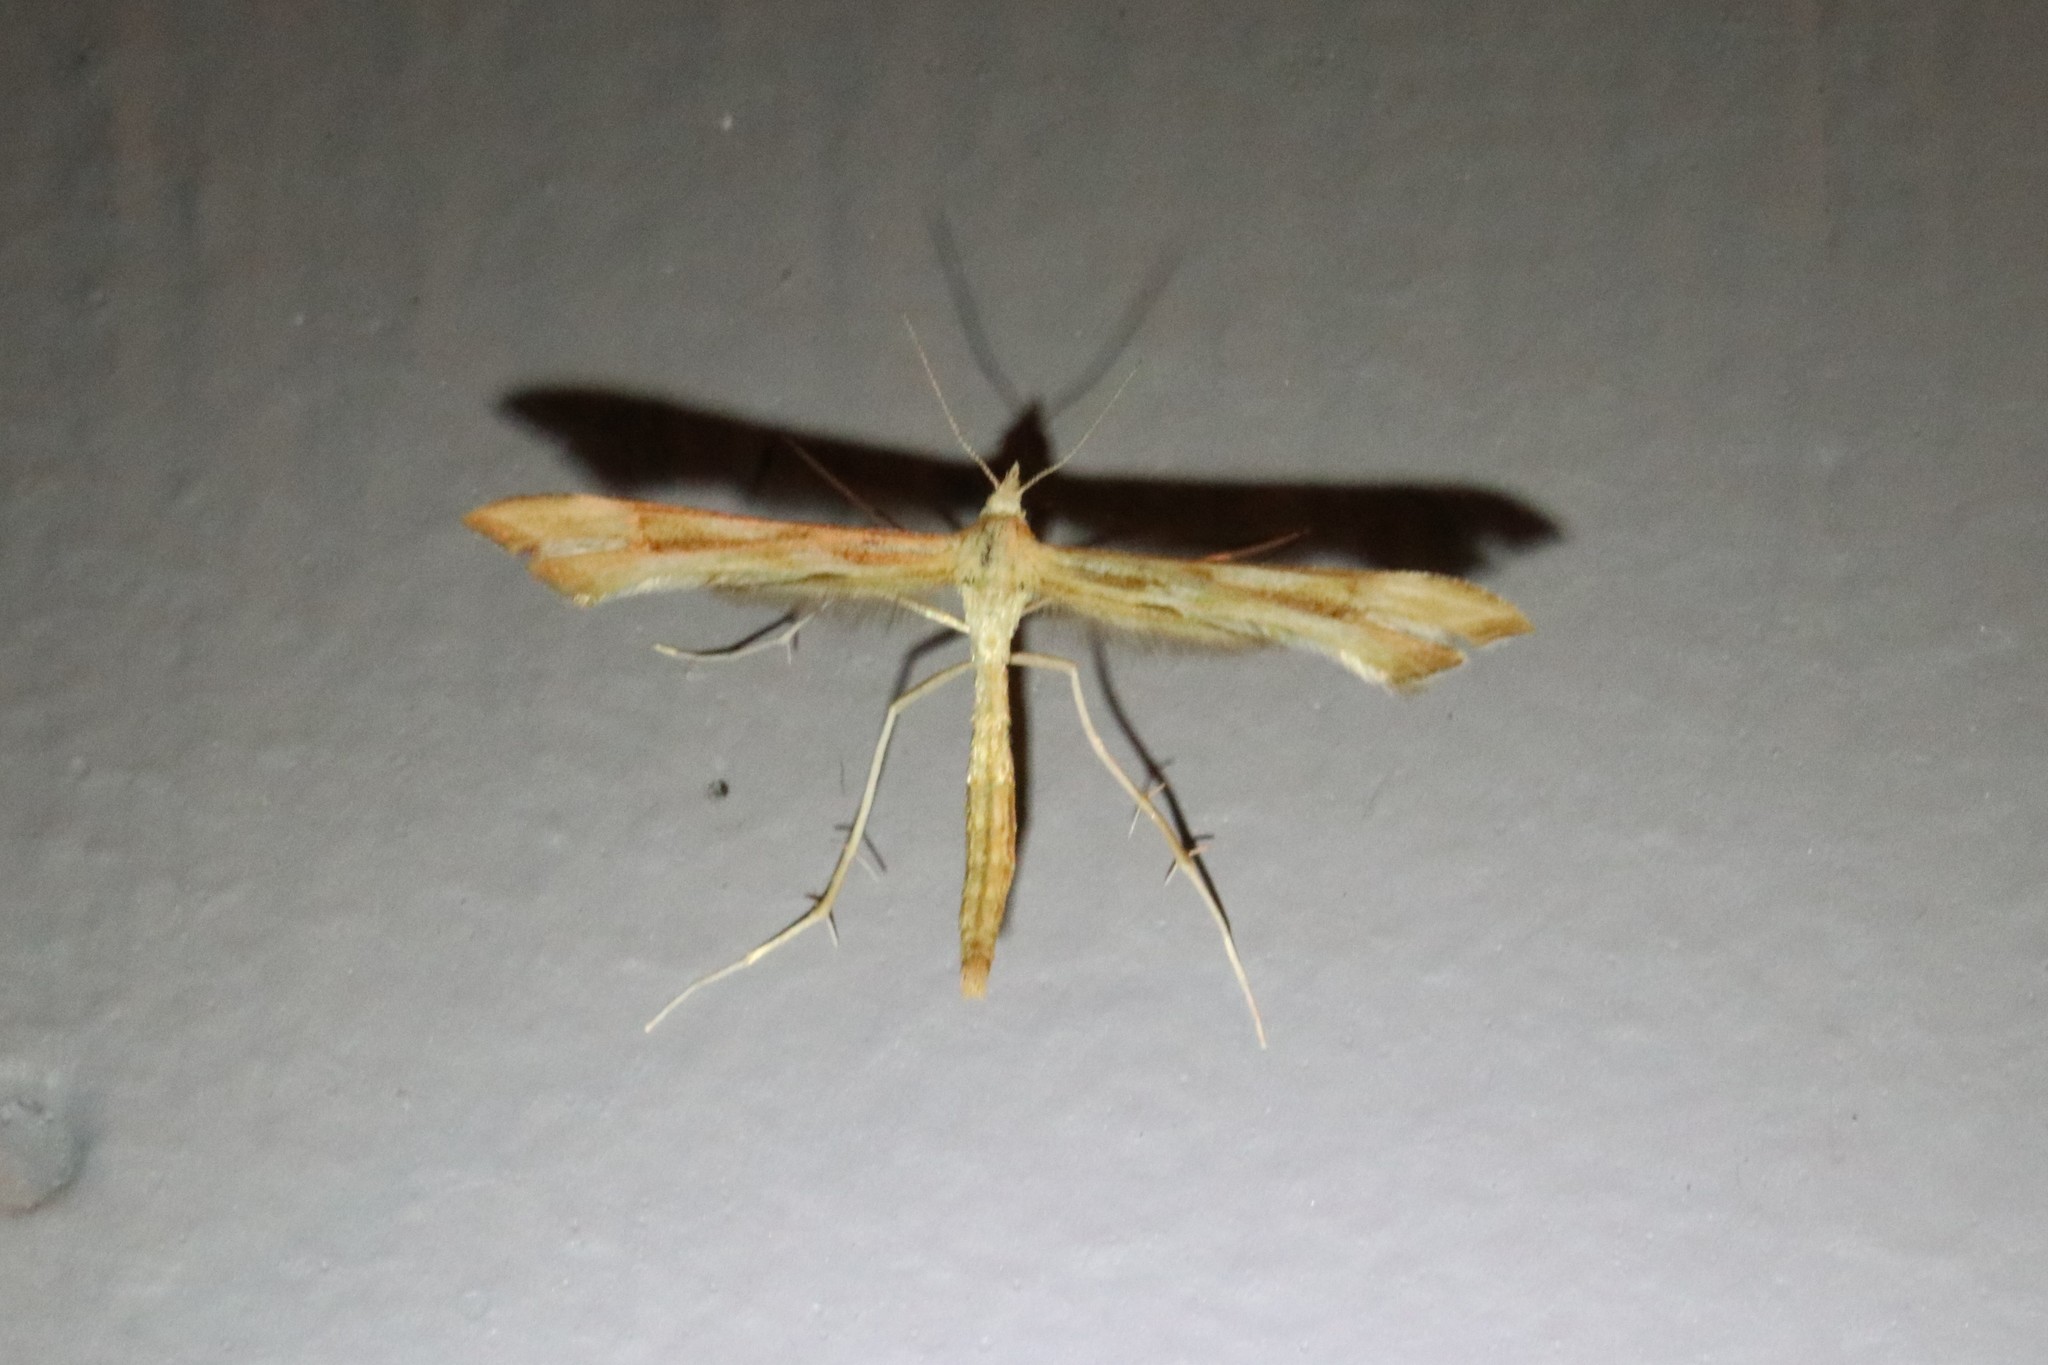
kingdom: Animalia
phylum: Arthropoda
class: Insecta
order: Lepidoptera
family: Pterophoridae
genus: Gillmeria
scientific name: Gillmeria pallidactyla
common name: Yarrow plume
